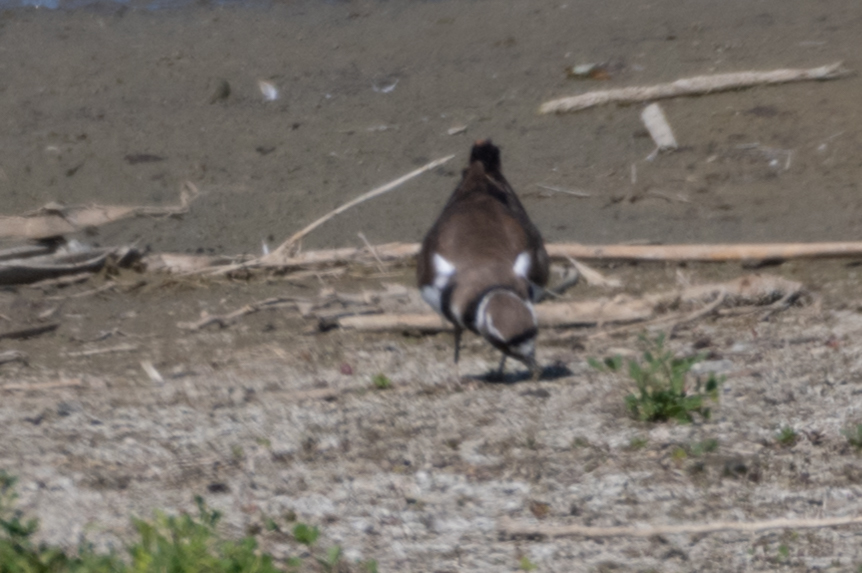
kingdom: Animalia
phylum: Chordata
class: Aves
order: Charadriiformes
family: Charadriidae
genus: Charadrius
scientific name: Charadrius vociferus
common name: Killdeer
